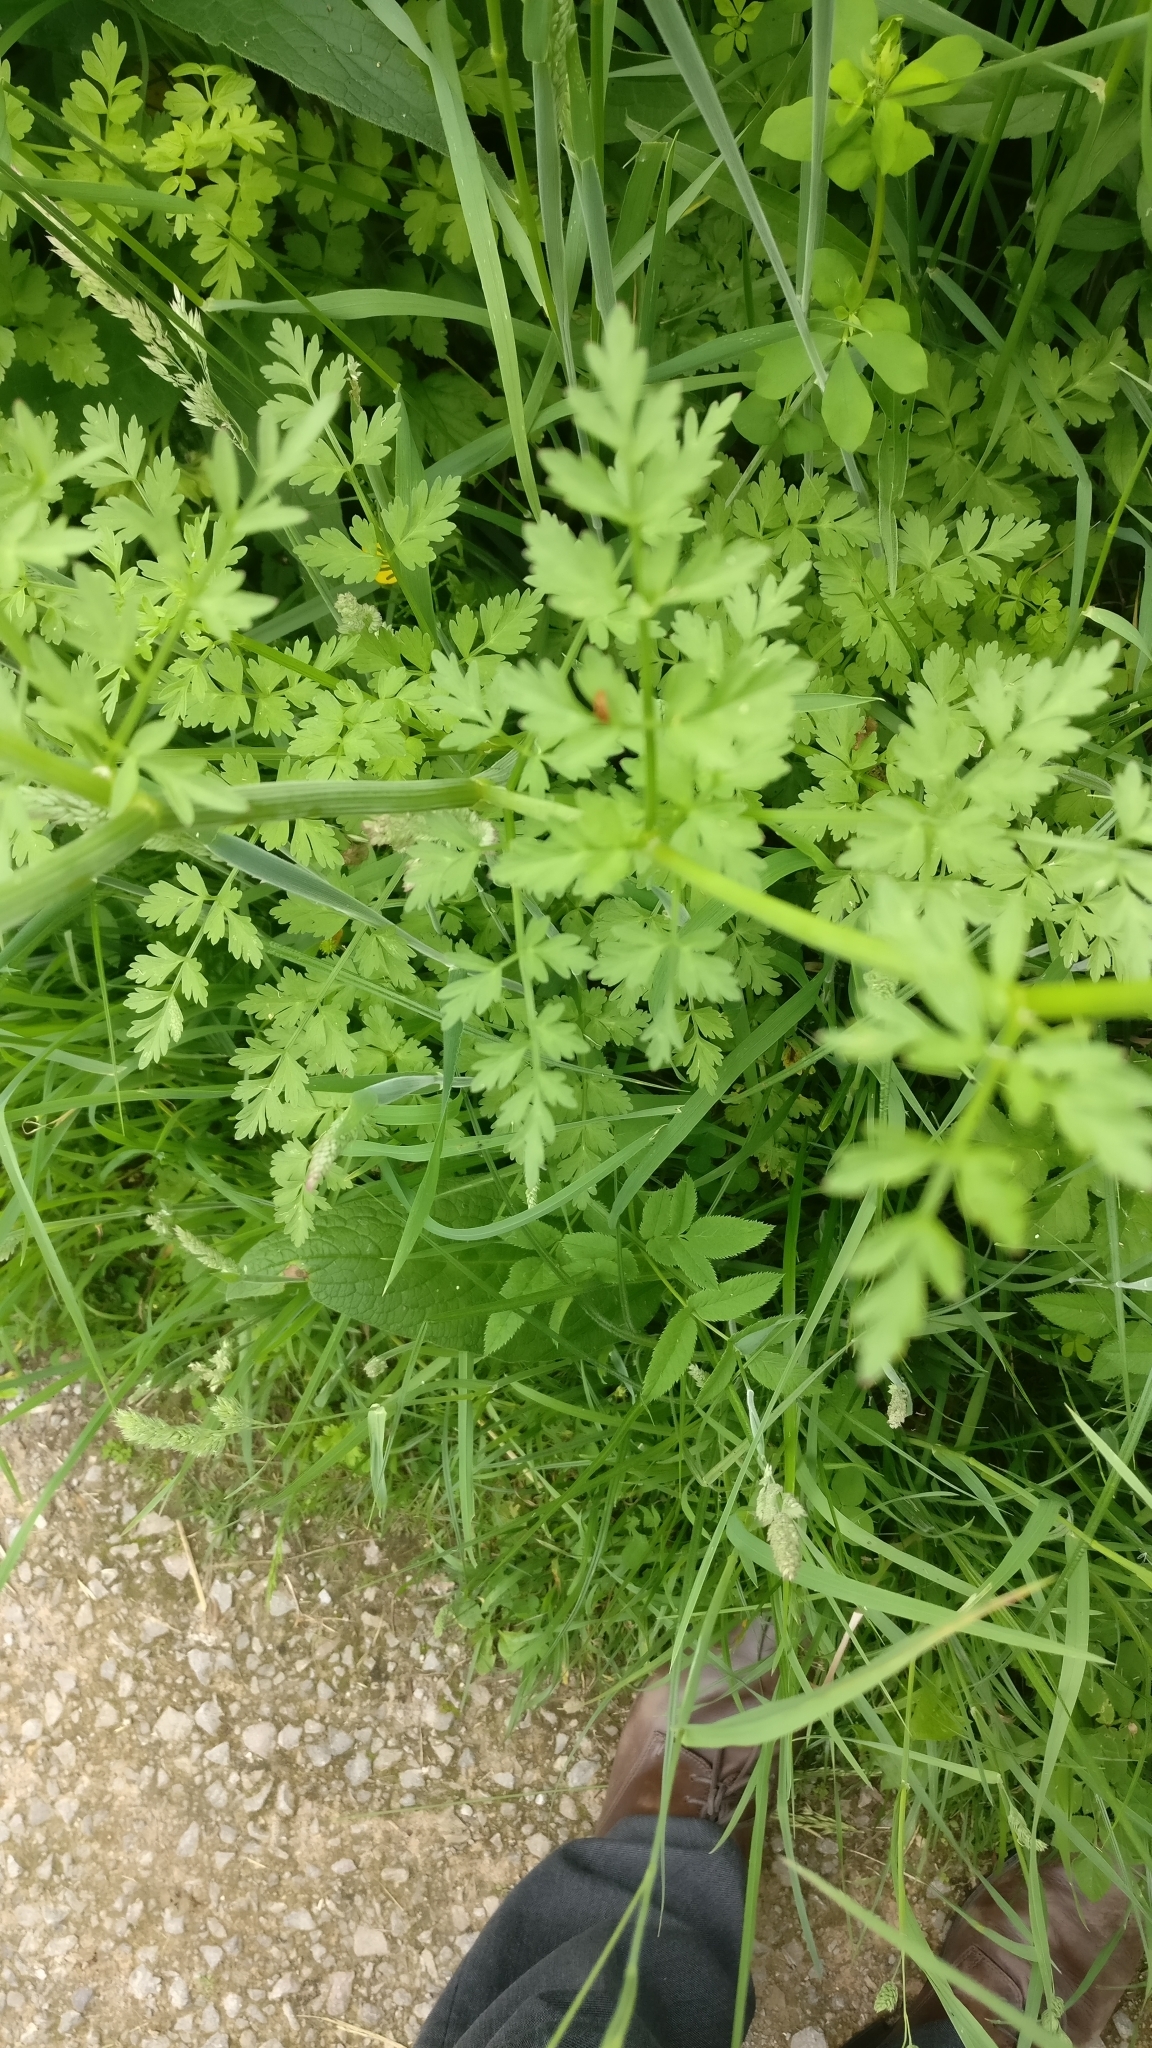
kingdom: Plantae
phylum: Tracheophyta
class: Magnoliopsida
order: Apiales
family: Apiaceae
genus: Oenanthe
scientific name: Oenanthe crocata
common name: Hemlock water-dropwort
